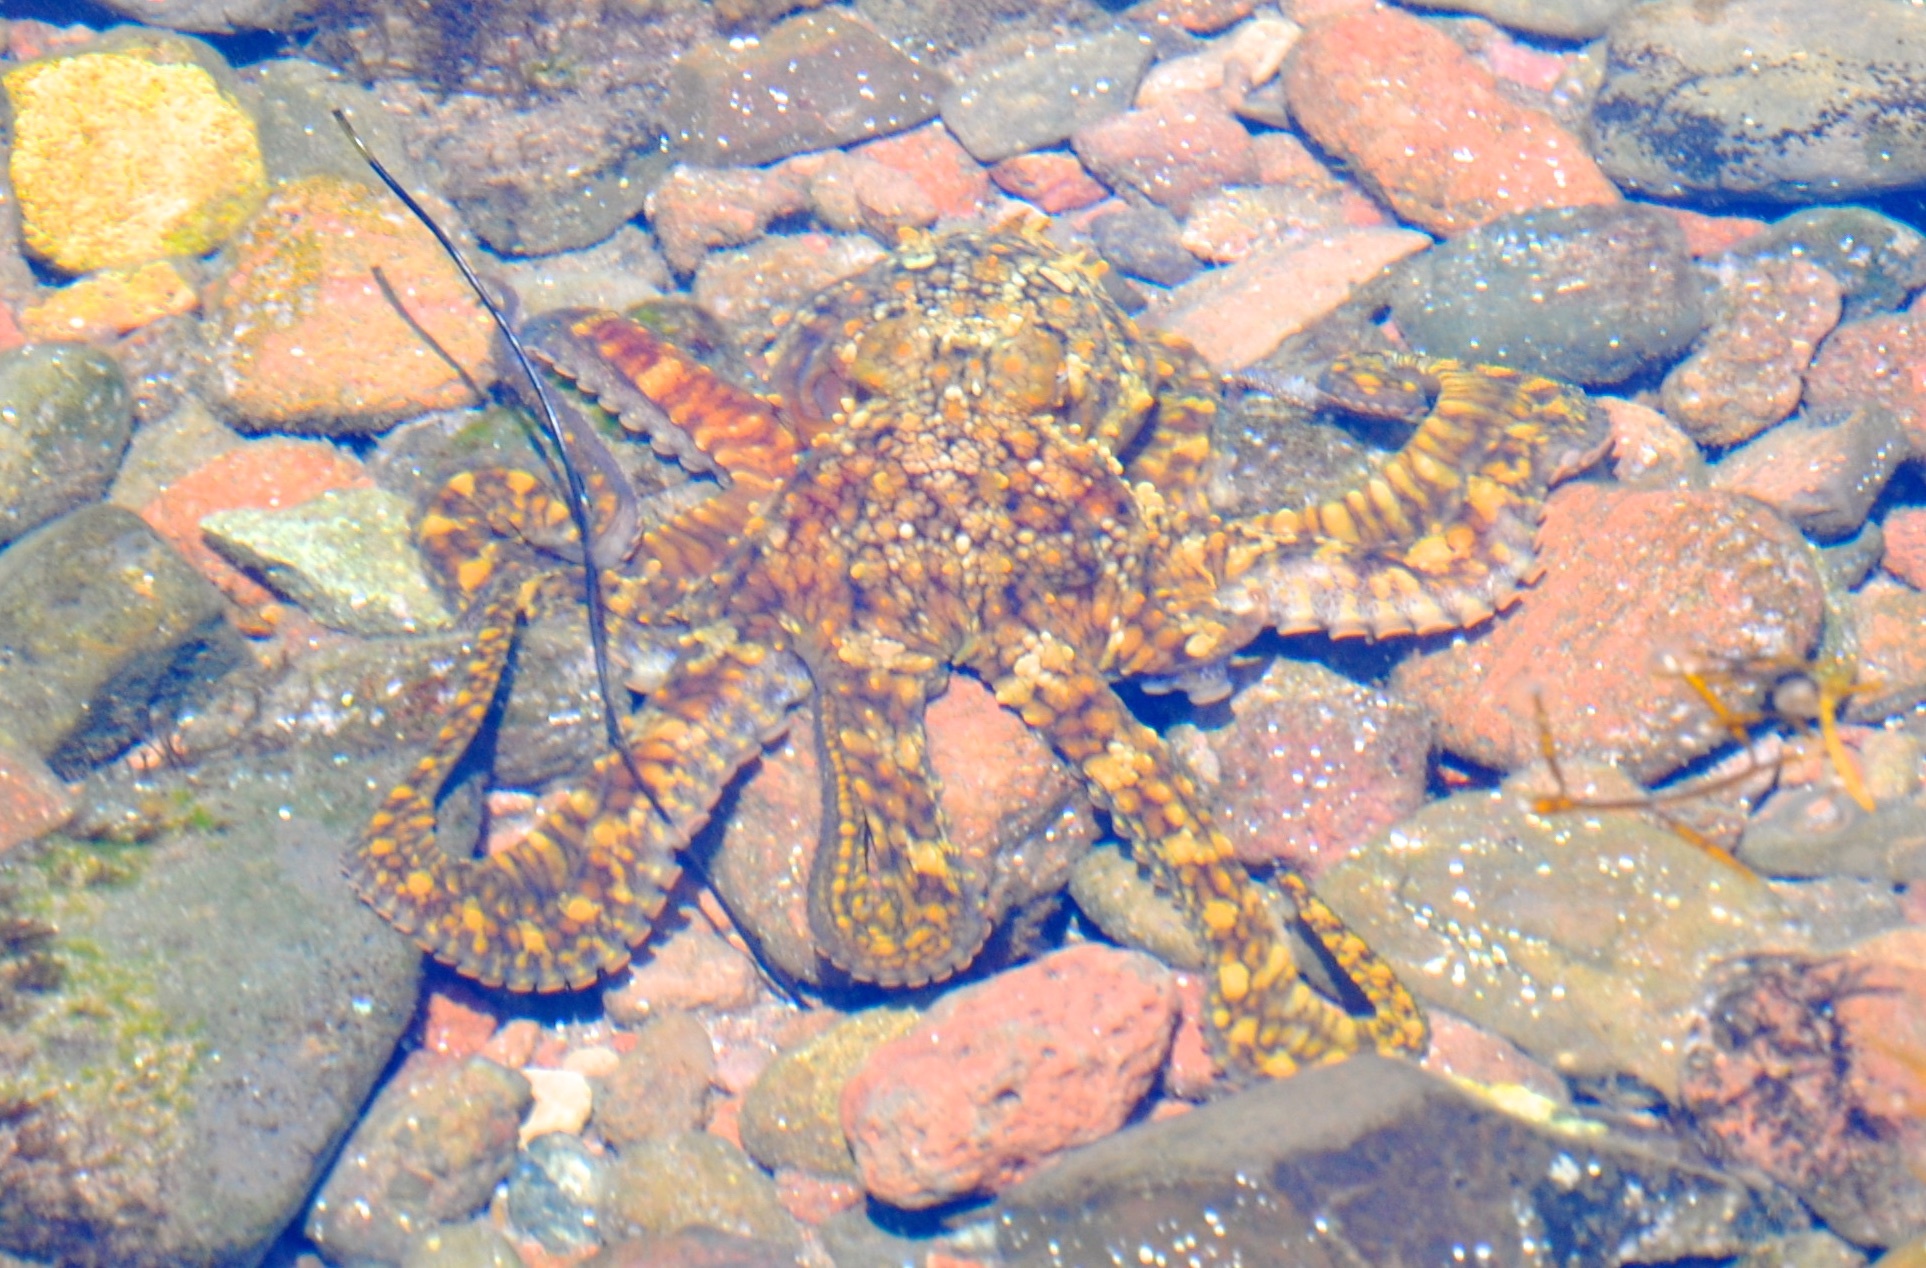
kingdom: Animalia
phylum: Mollusca
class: Cephalopoda
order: Octopoda
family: Octopodidae
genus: Octopus
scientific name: Octopus bimaculoides
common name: California two-spot octopus
